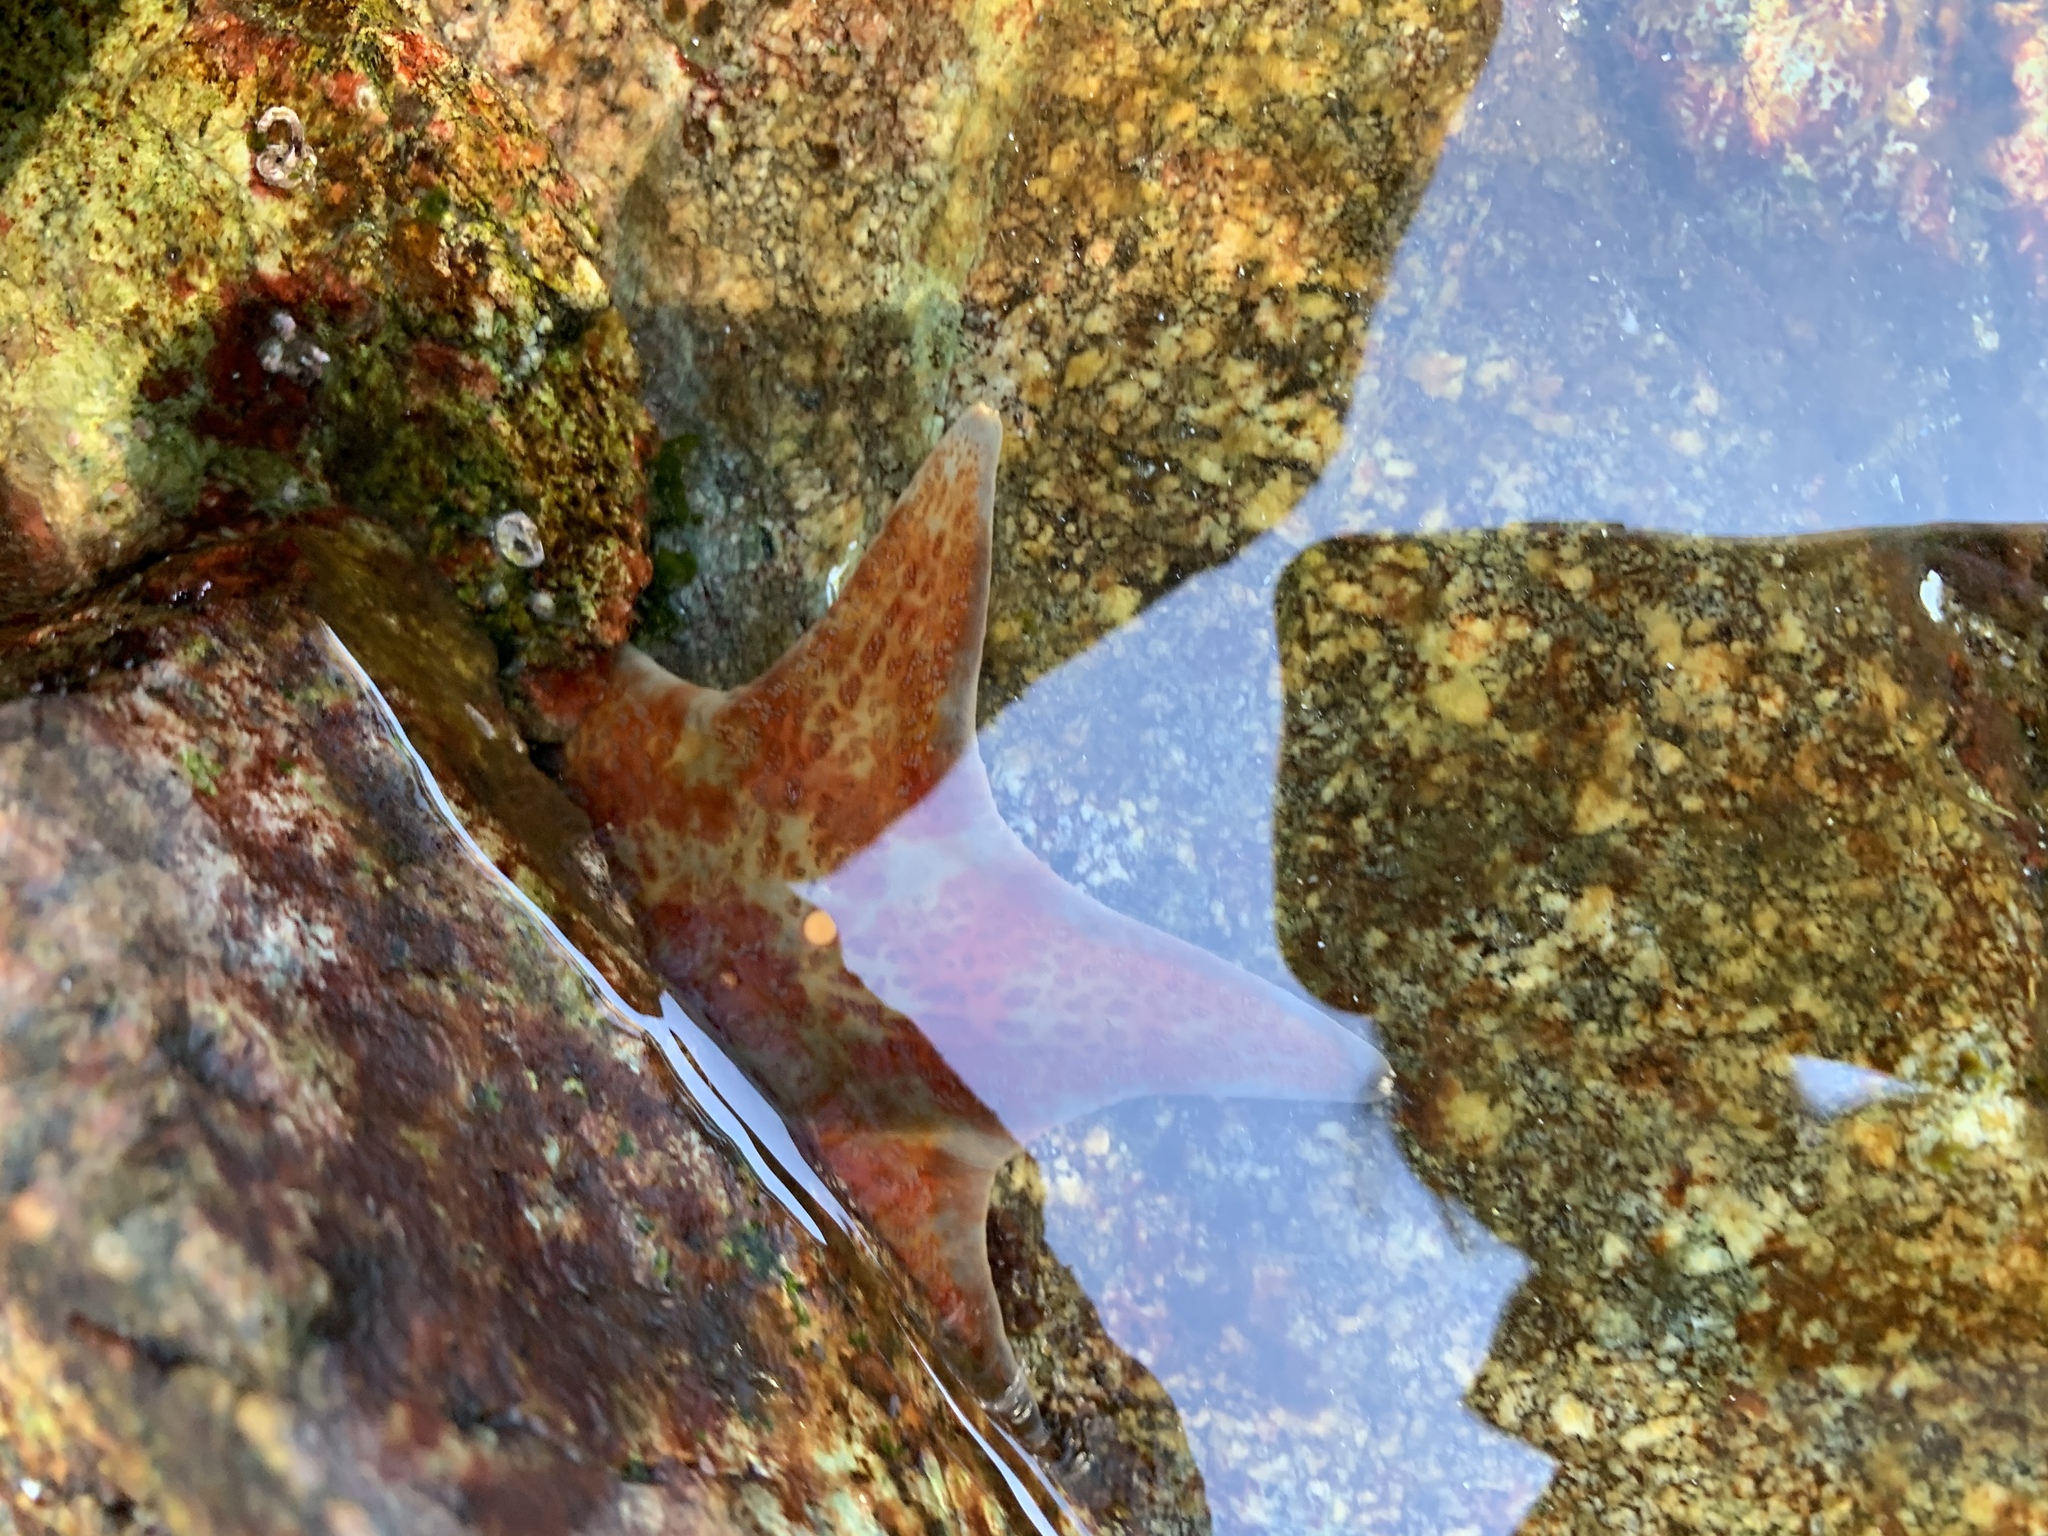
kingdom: Animalia
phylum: Echinodermata
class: Asteroidea
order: Valvatida
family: Asteropseidae
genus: Dermasterias
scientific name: Dermasterias imbricata
